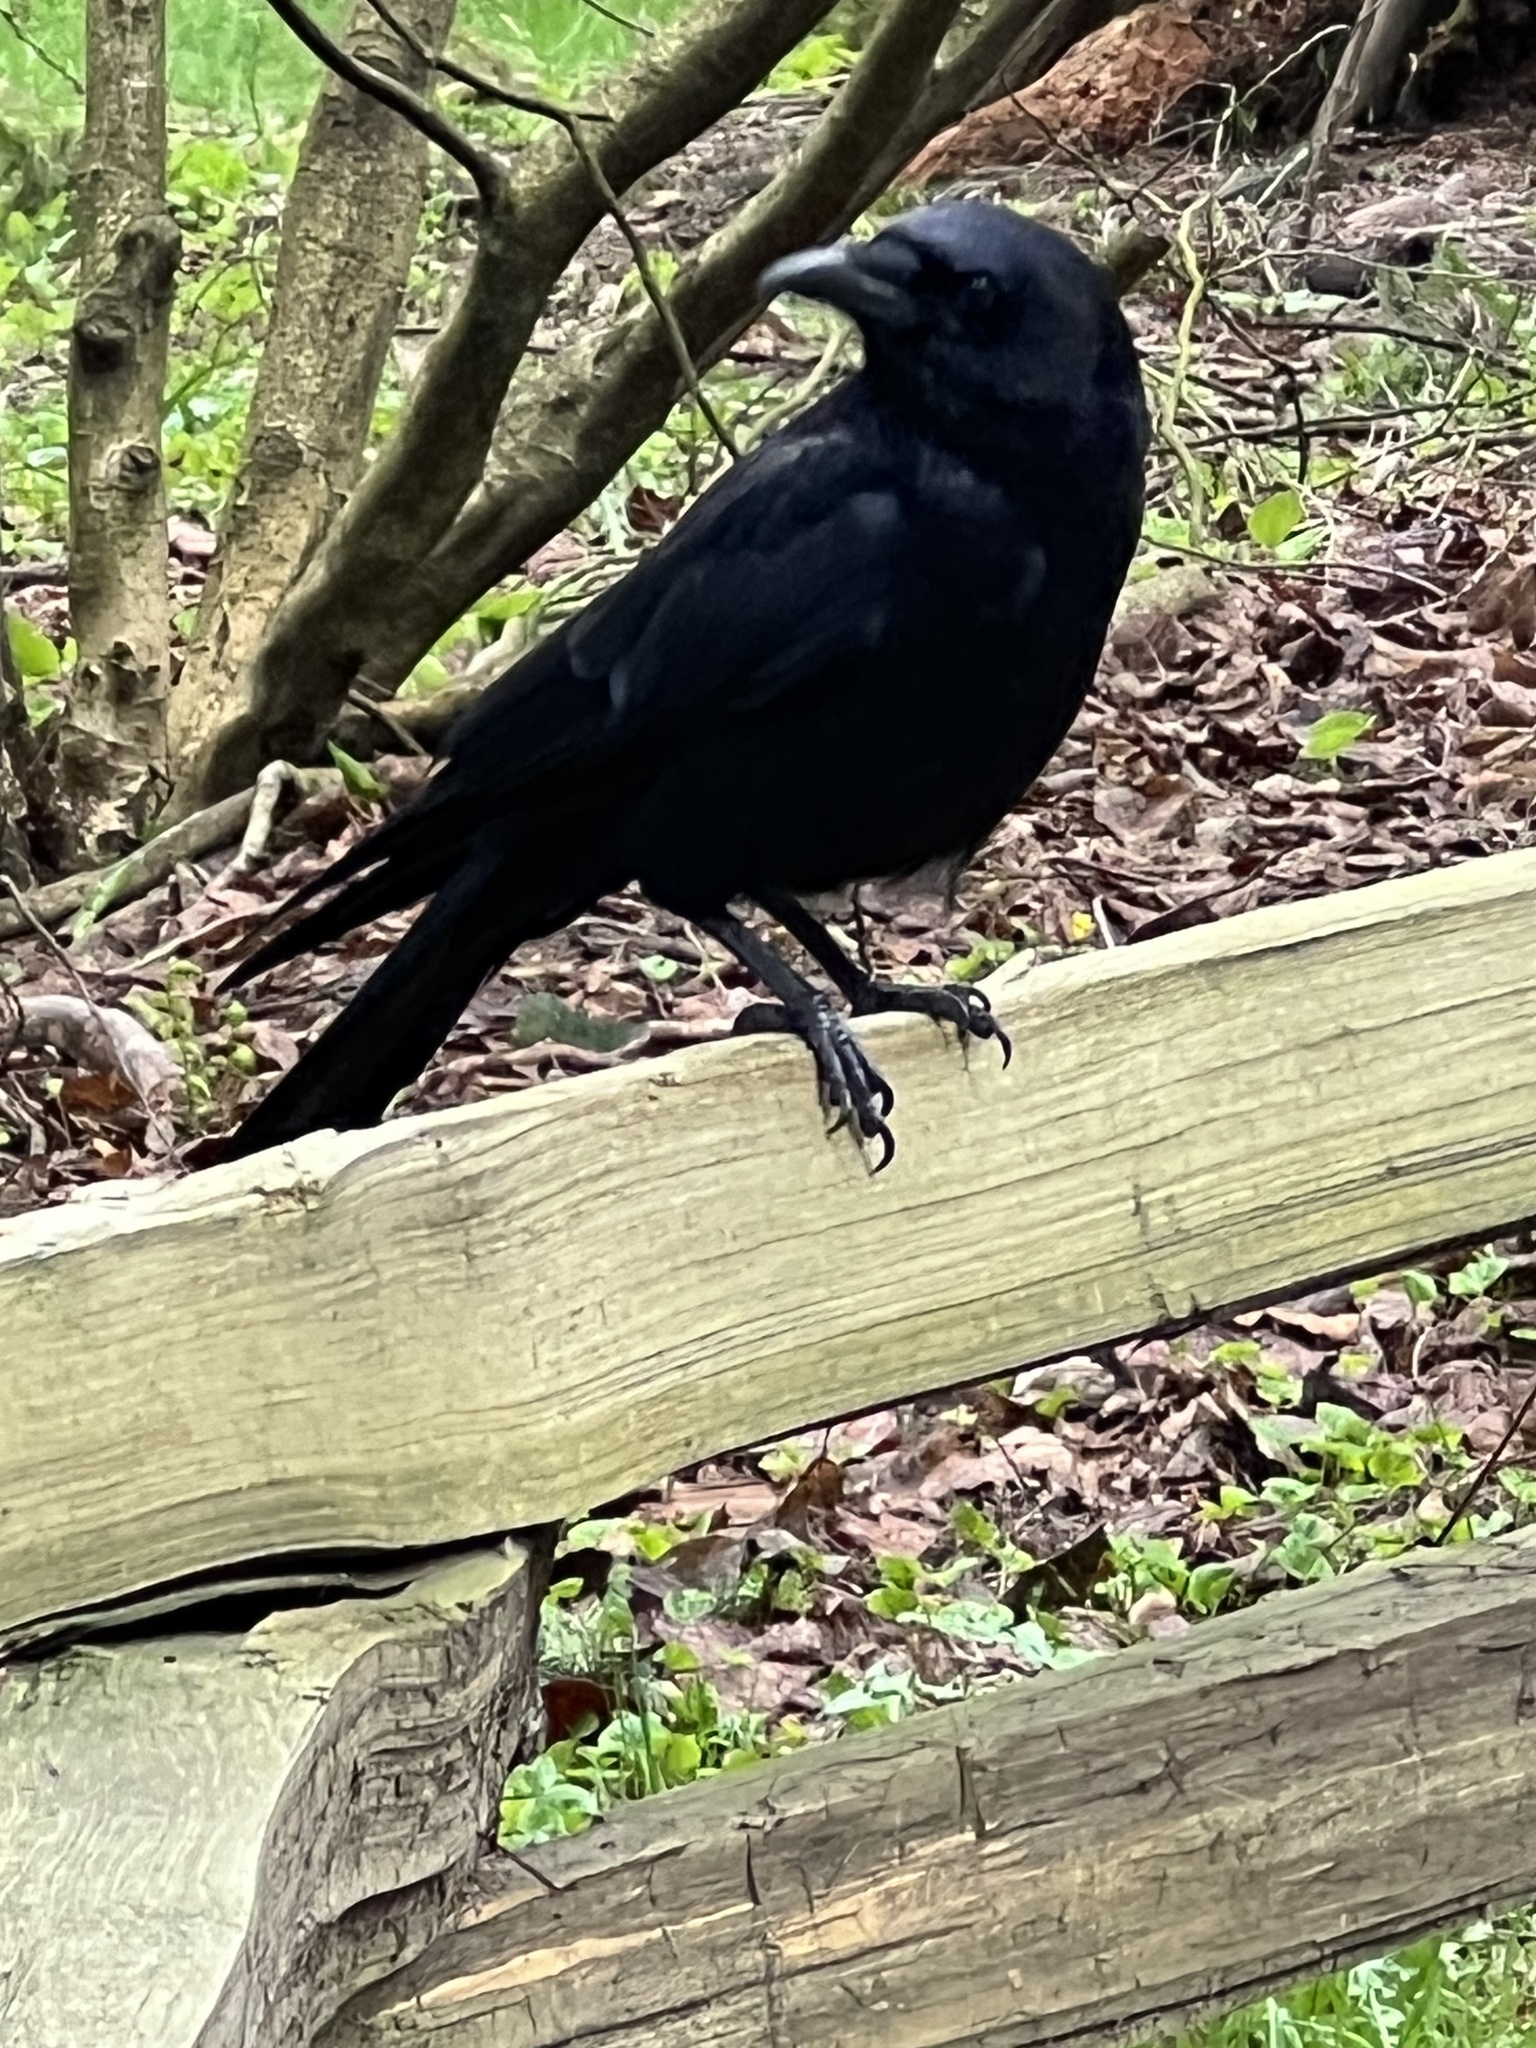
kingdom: Animalia
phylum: Chordata
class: Aves
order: Passeriformes
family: Corvidae
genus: Corvus
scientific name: Corvus brachyrhynchos
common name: American crow
